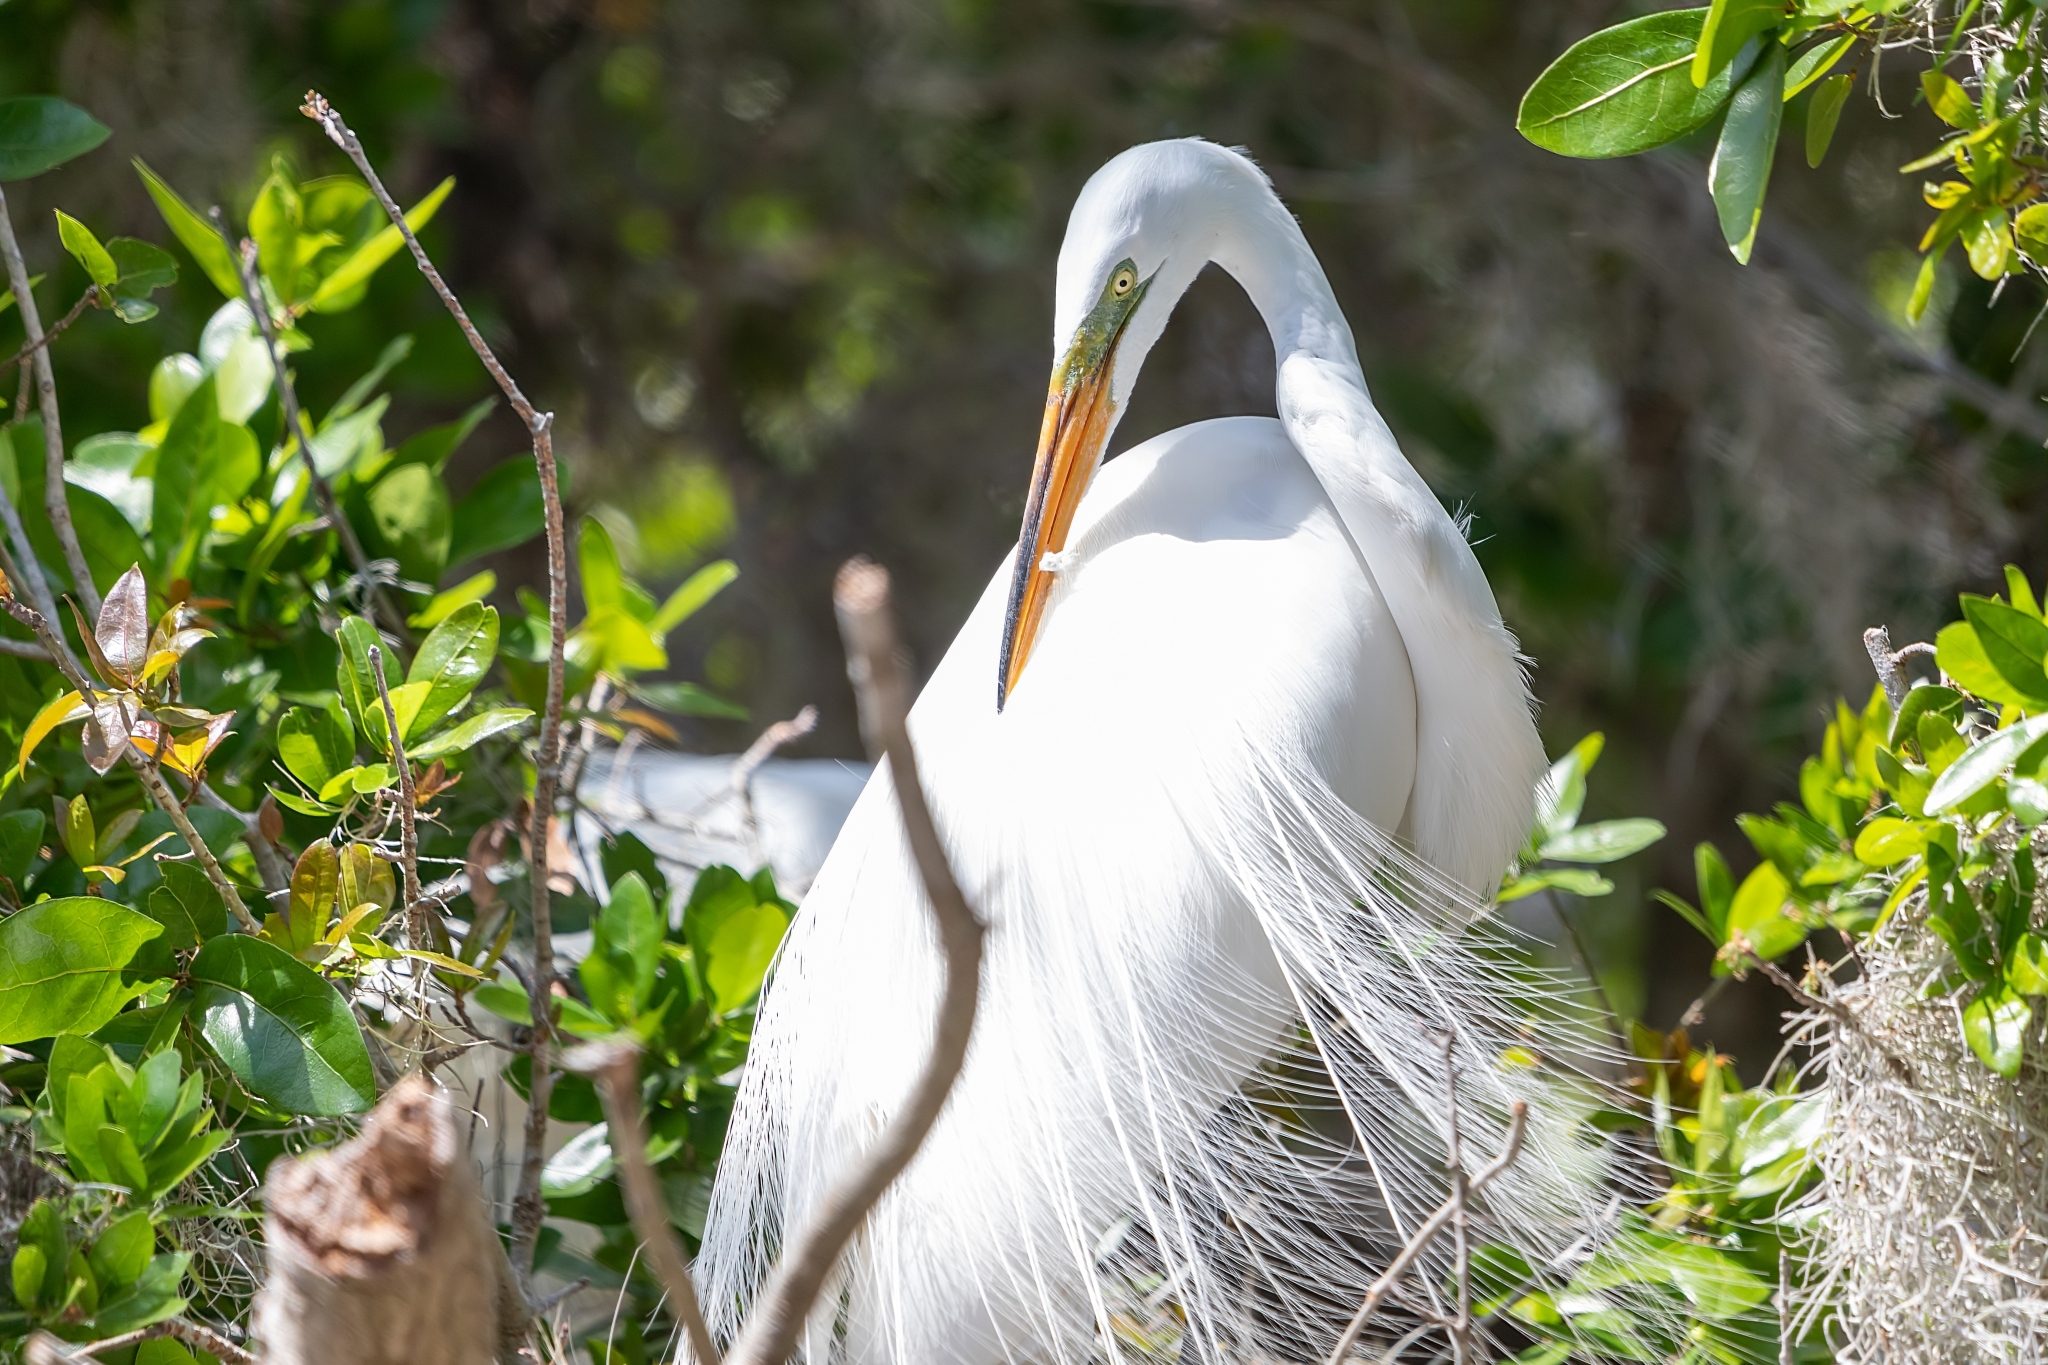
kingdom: Animalia
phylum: Chordata
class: Aves
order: Pelecaniformes
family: Ardeidae
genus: Ardea
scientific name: Ardea alba
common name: Great egret
